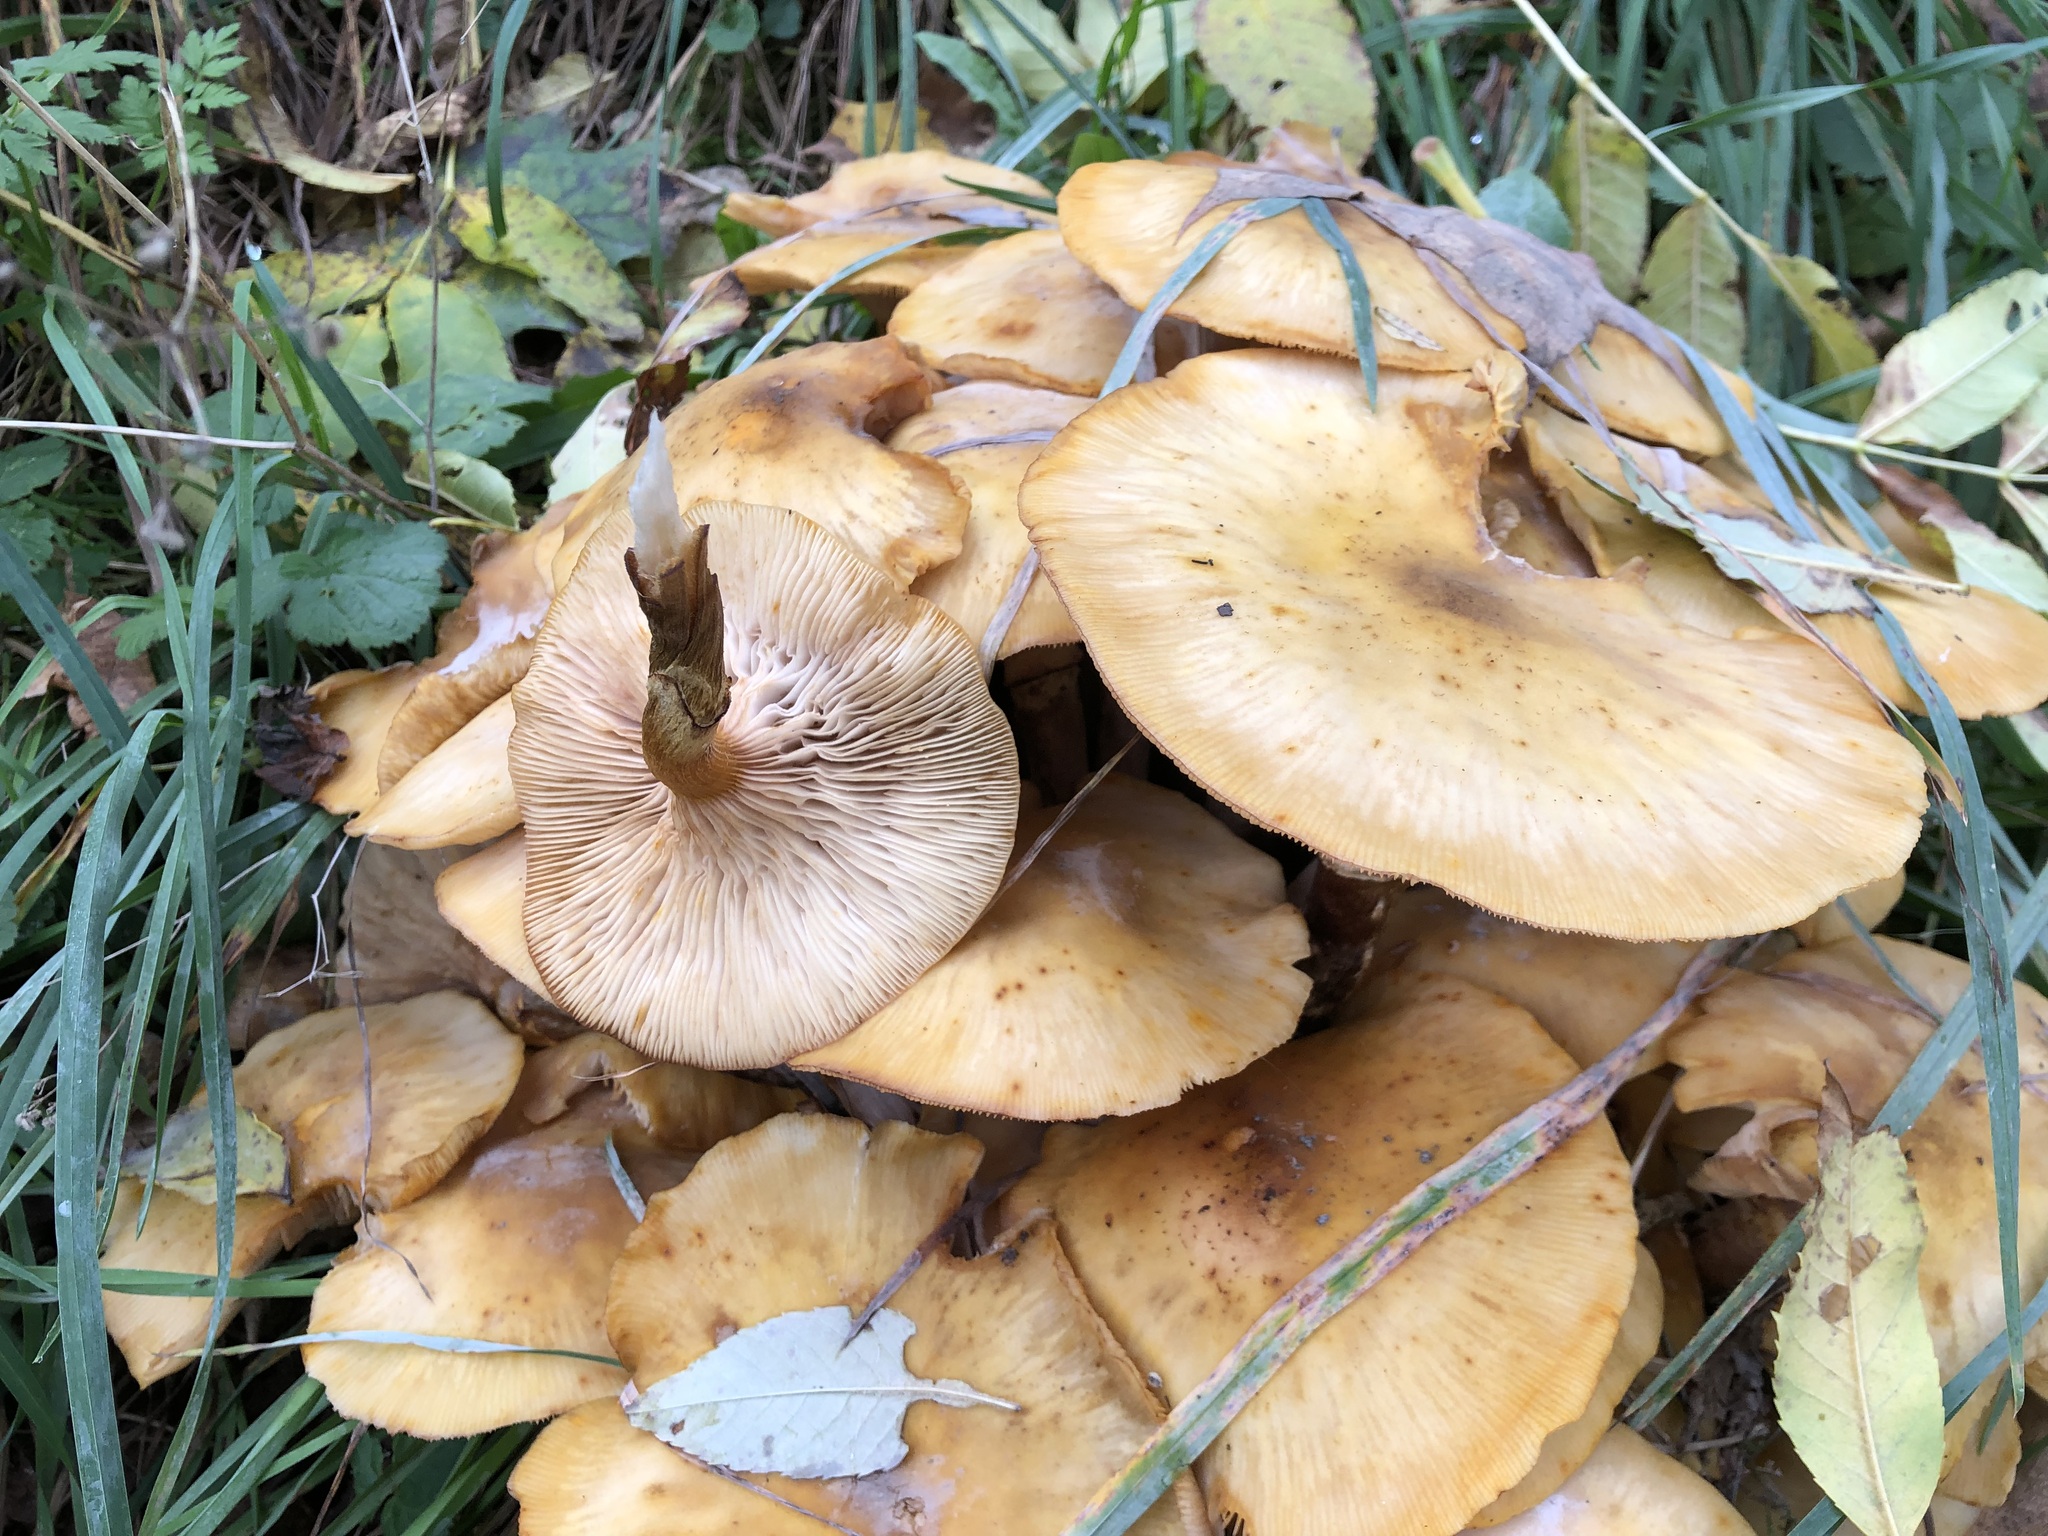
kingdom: Fungi
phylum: Basidiomycota
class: Agaricomycetes
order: Agaricales
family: Physalacriaceae
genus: Armillaria
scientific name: Armillaria mellea
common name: Honey fungus
